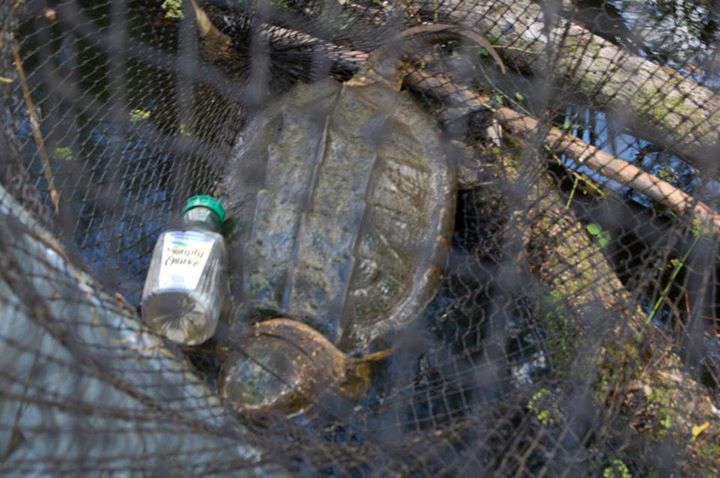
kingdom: Animalia
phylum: Chordata
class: Testudines
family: Chelydridae
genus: Macrochelys
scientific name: Macrochelys temminckii
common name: Alligator snapping turtle
